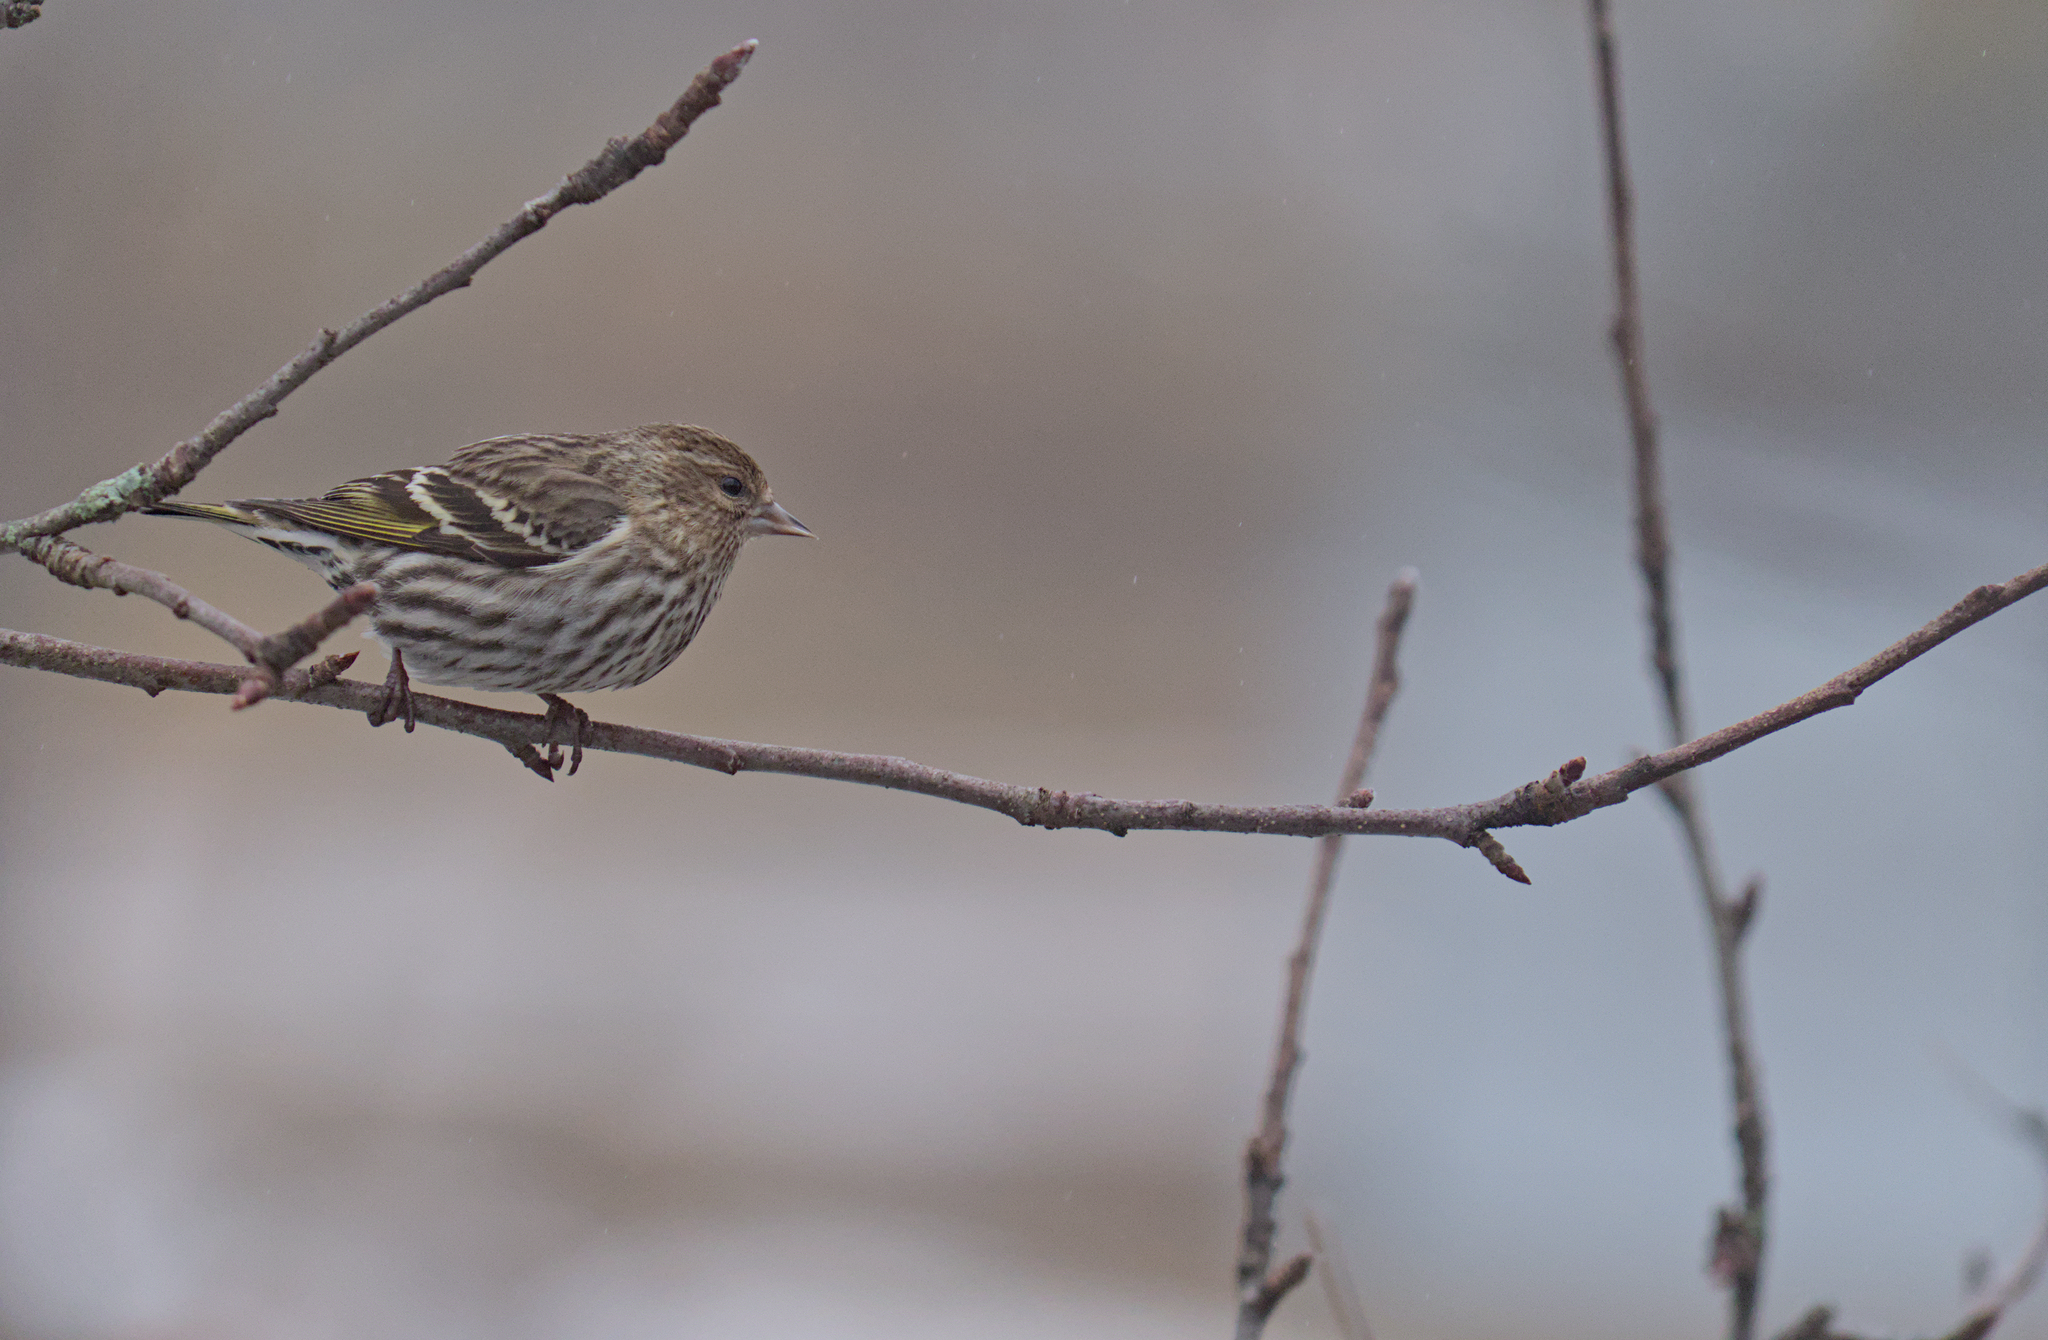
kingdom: Animalia
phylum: Chordata
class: Aves
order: Passeriformes
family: Fringillidae
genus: Spinus
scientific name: Spinus pinus
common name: Pine siskin
